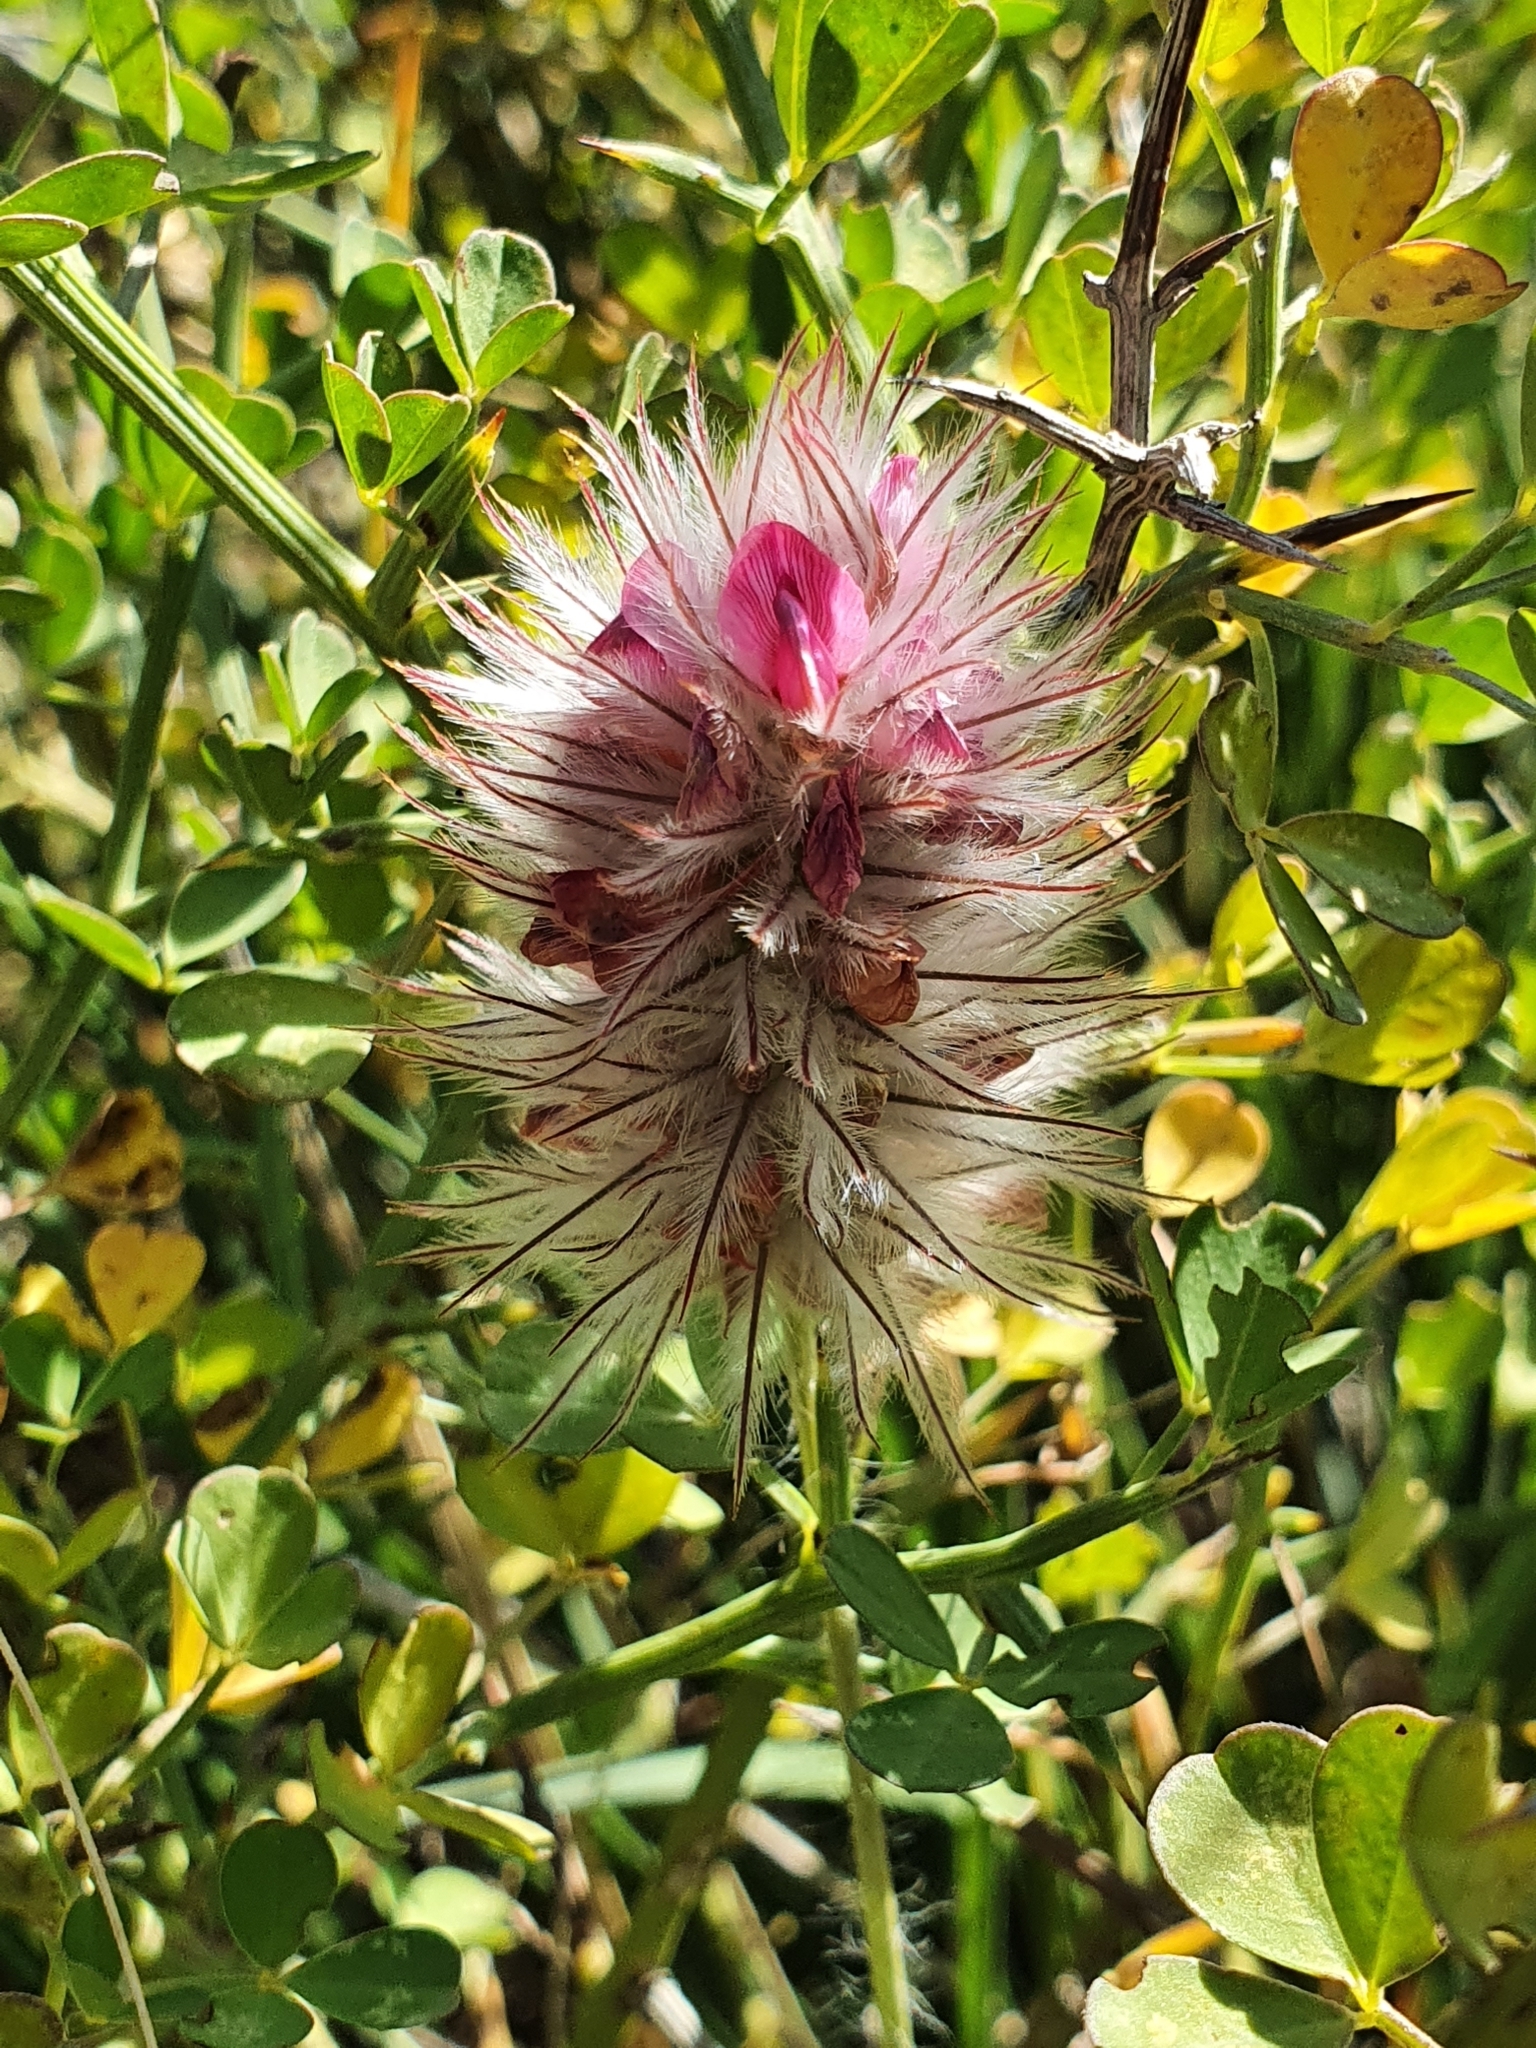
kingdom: Plantae
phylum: Tracheophyta
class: Magnoliopsida
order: Fabales
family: Fabaceae
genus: Ebenus
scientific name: Ebenus pinnata
